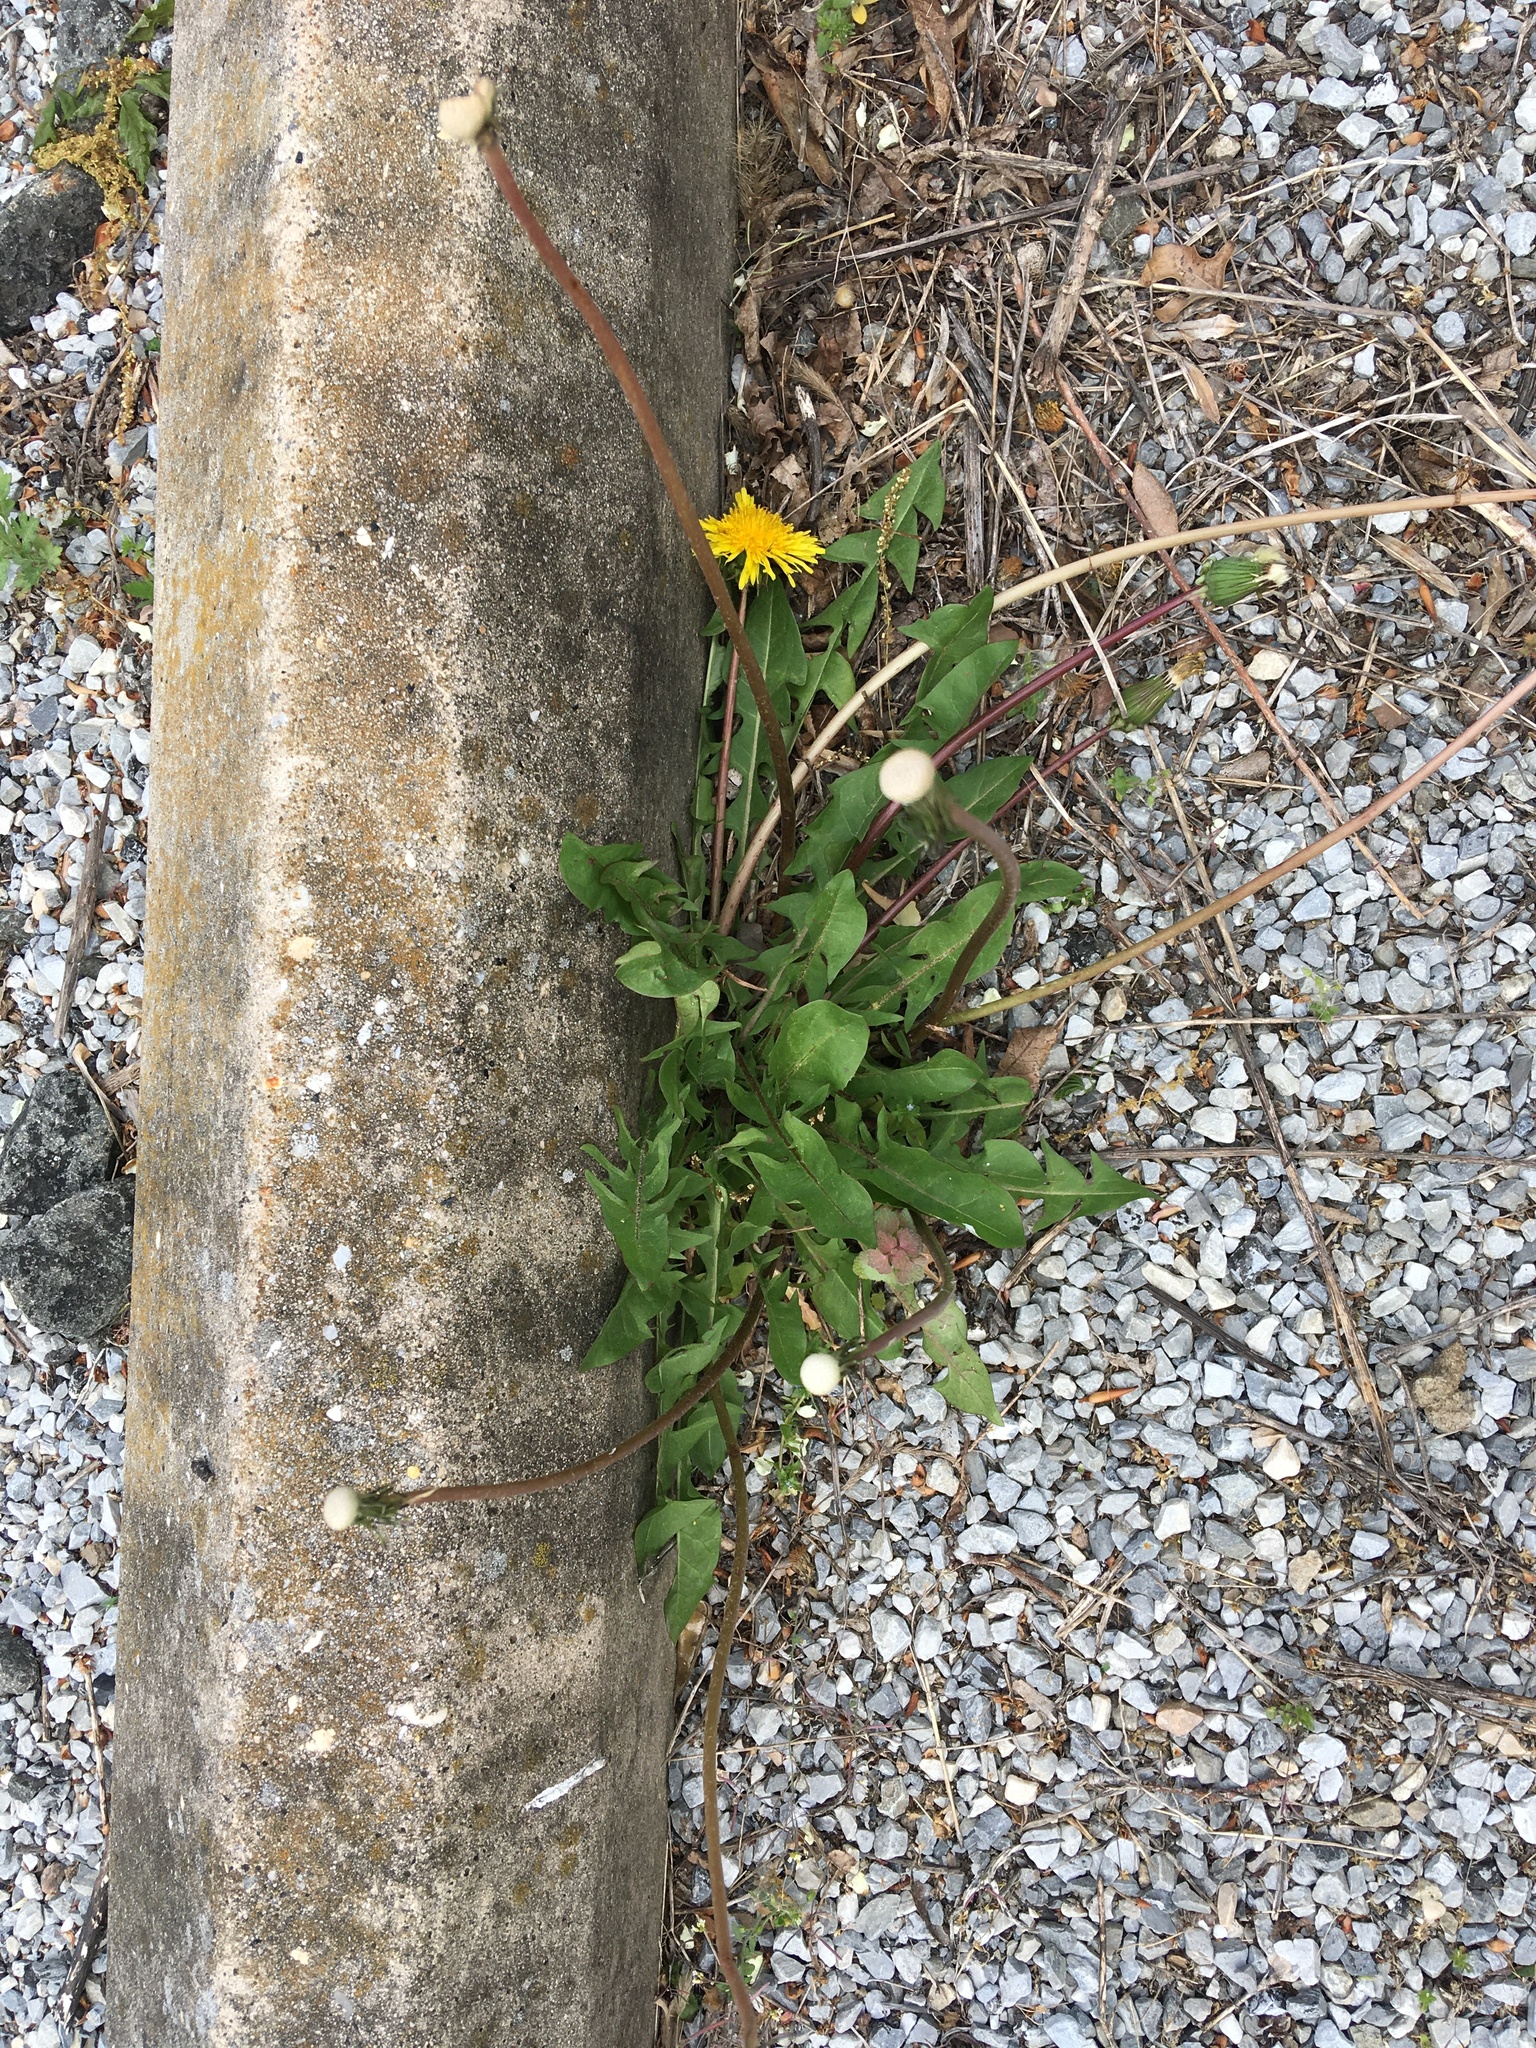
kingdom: Plantae
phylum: Tracheophyta
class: Magnoliopsida
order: Asterales
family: Asteraceae
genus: Taraxacum
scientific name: Taraxacum officinale
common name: Common dandelion
